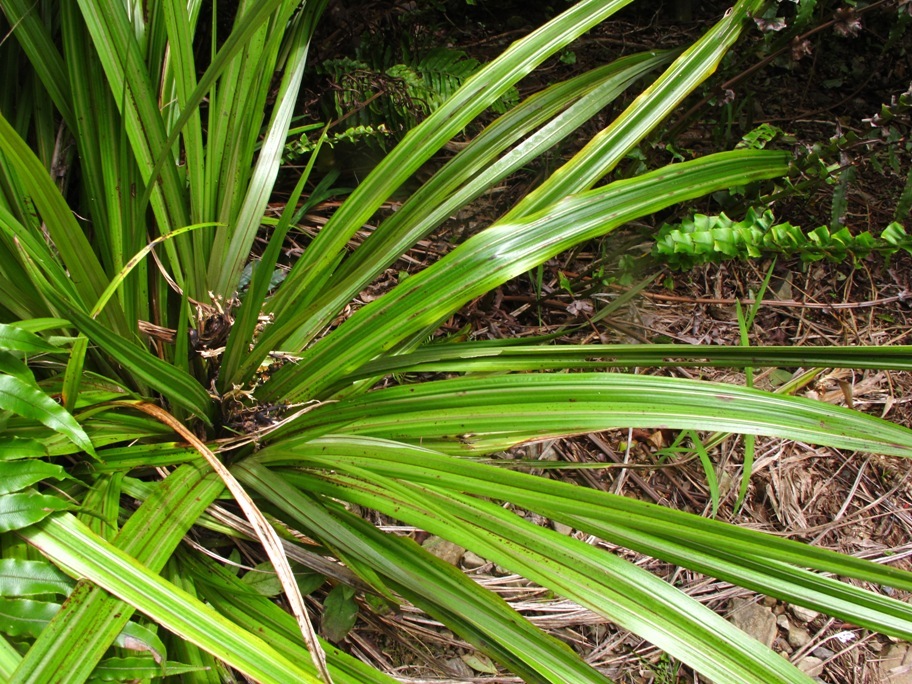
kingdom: Plantae
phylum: Tracheophyta
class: Liliopsida
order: Asparagales
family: Asteliaceae
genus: Astelia
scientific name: Astelia fragrans
